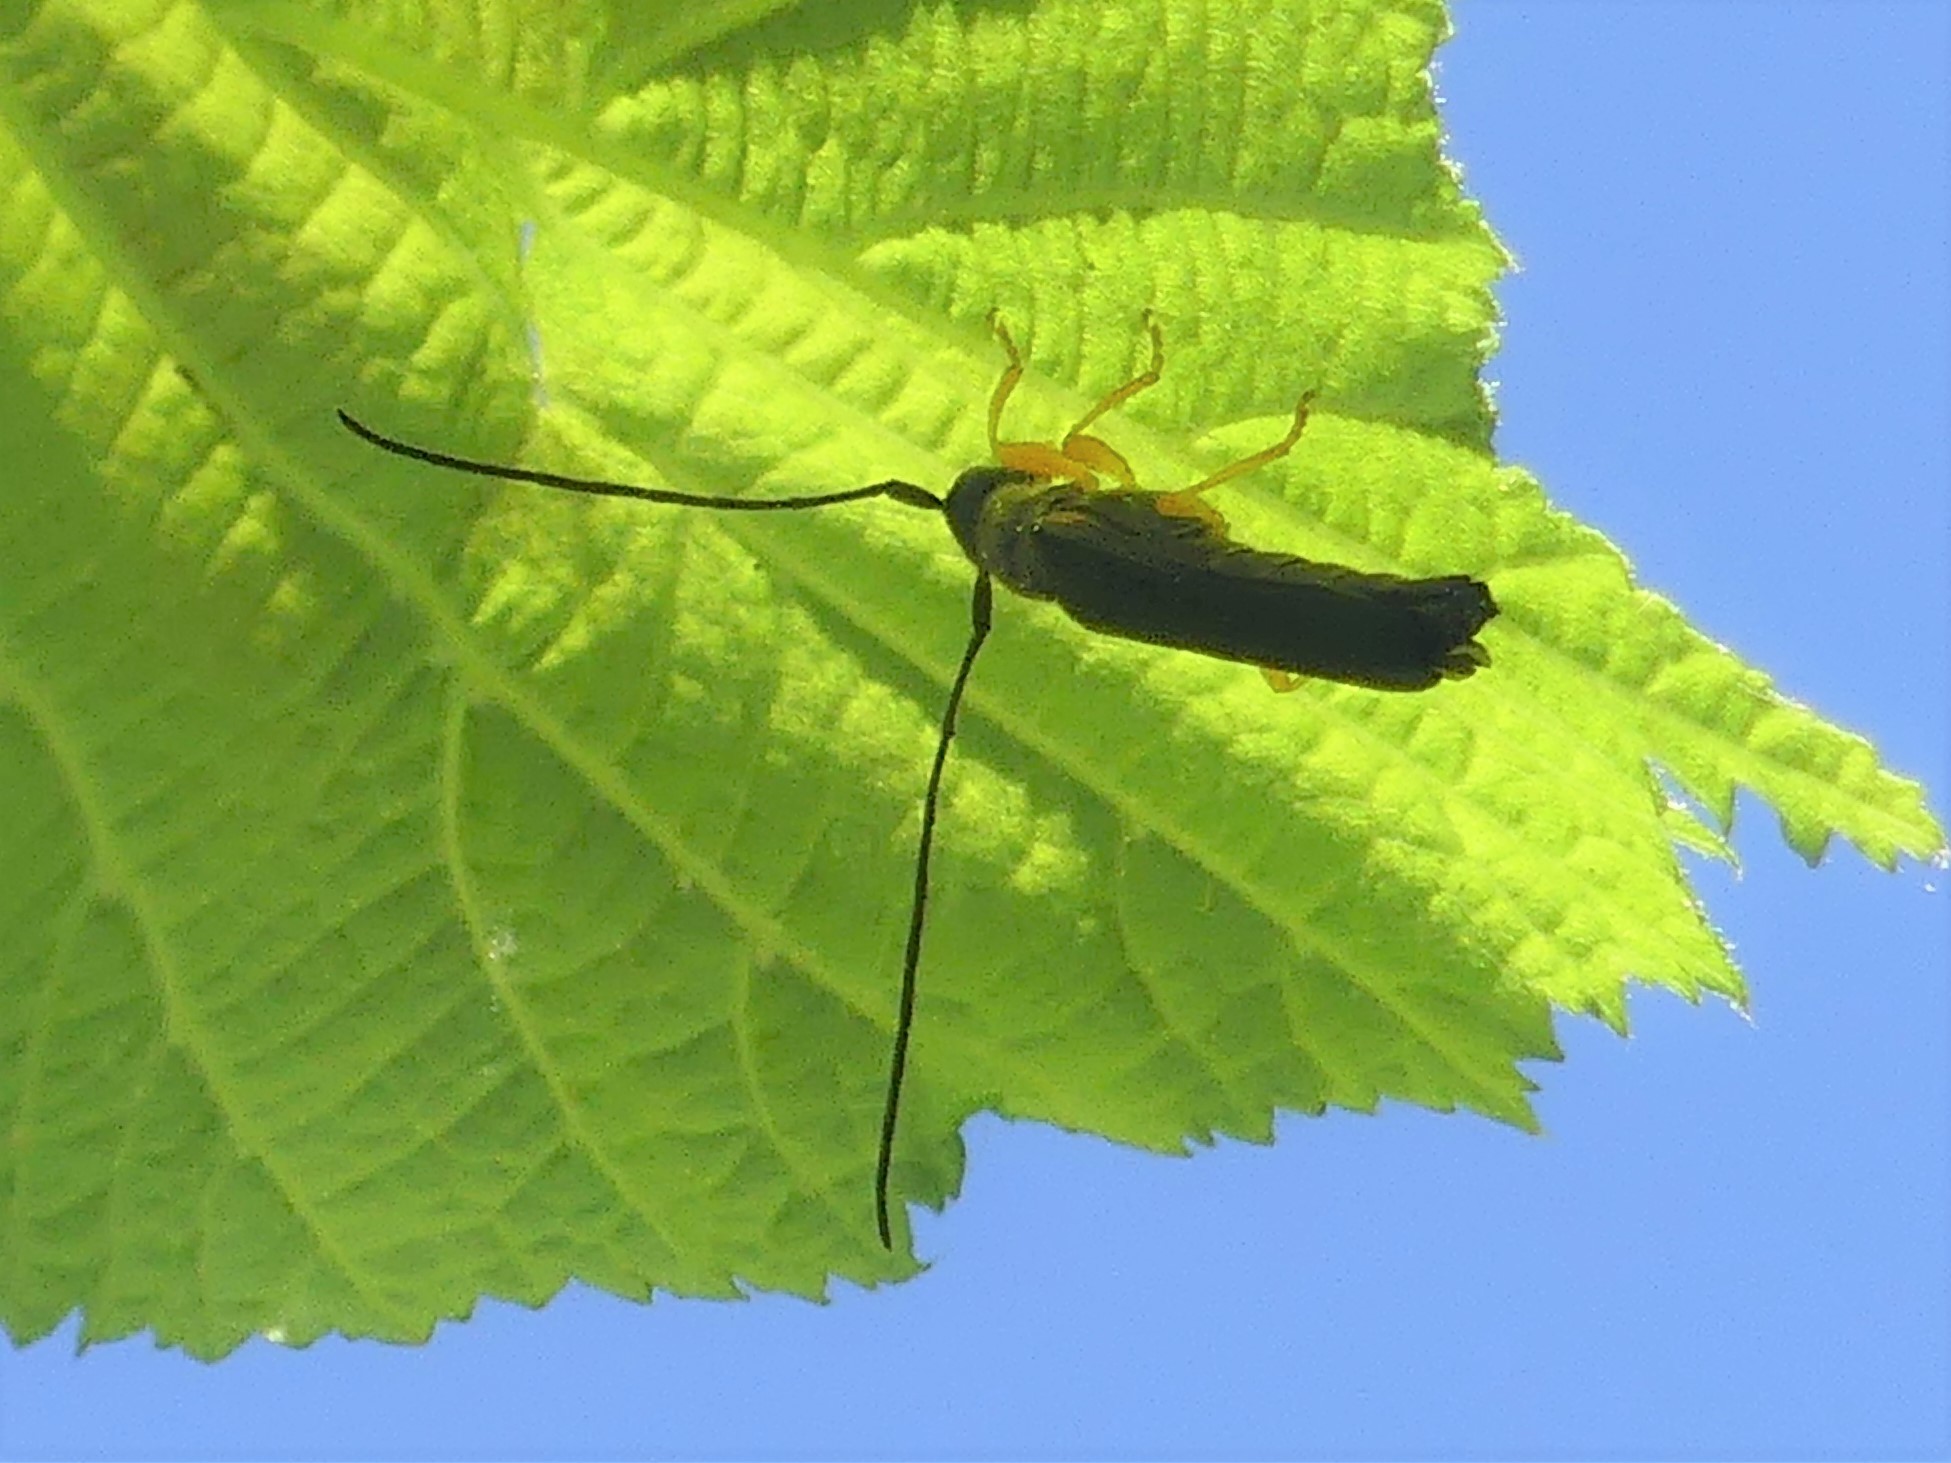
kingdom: Animalia
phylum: Arthropoda
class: Insecta
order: Coleoptera
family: Cerambycidae
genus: Oberea
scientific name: Oberea linearis
